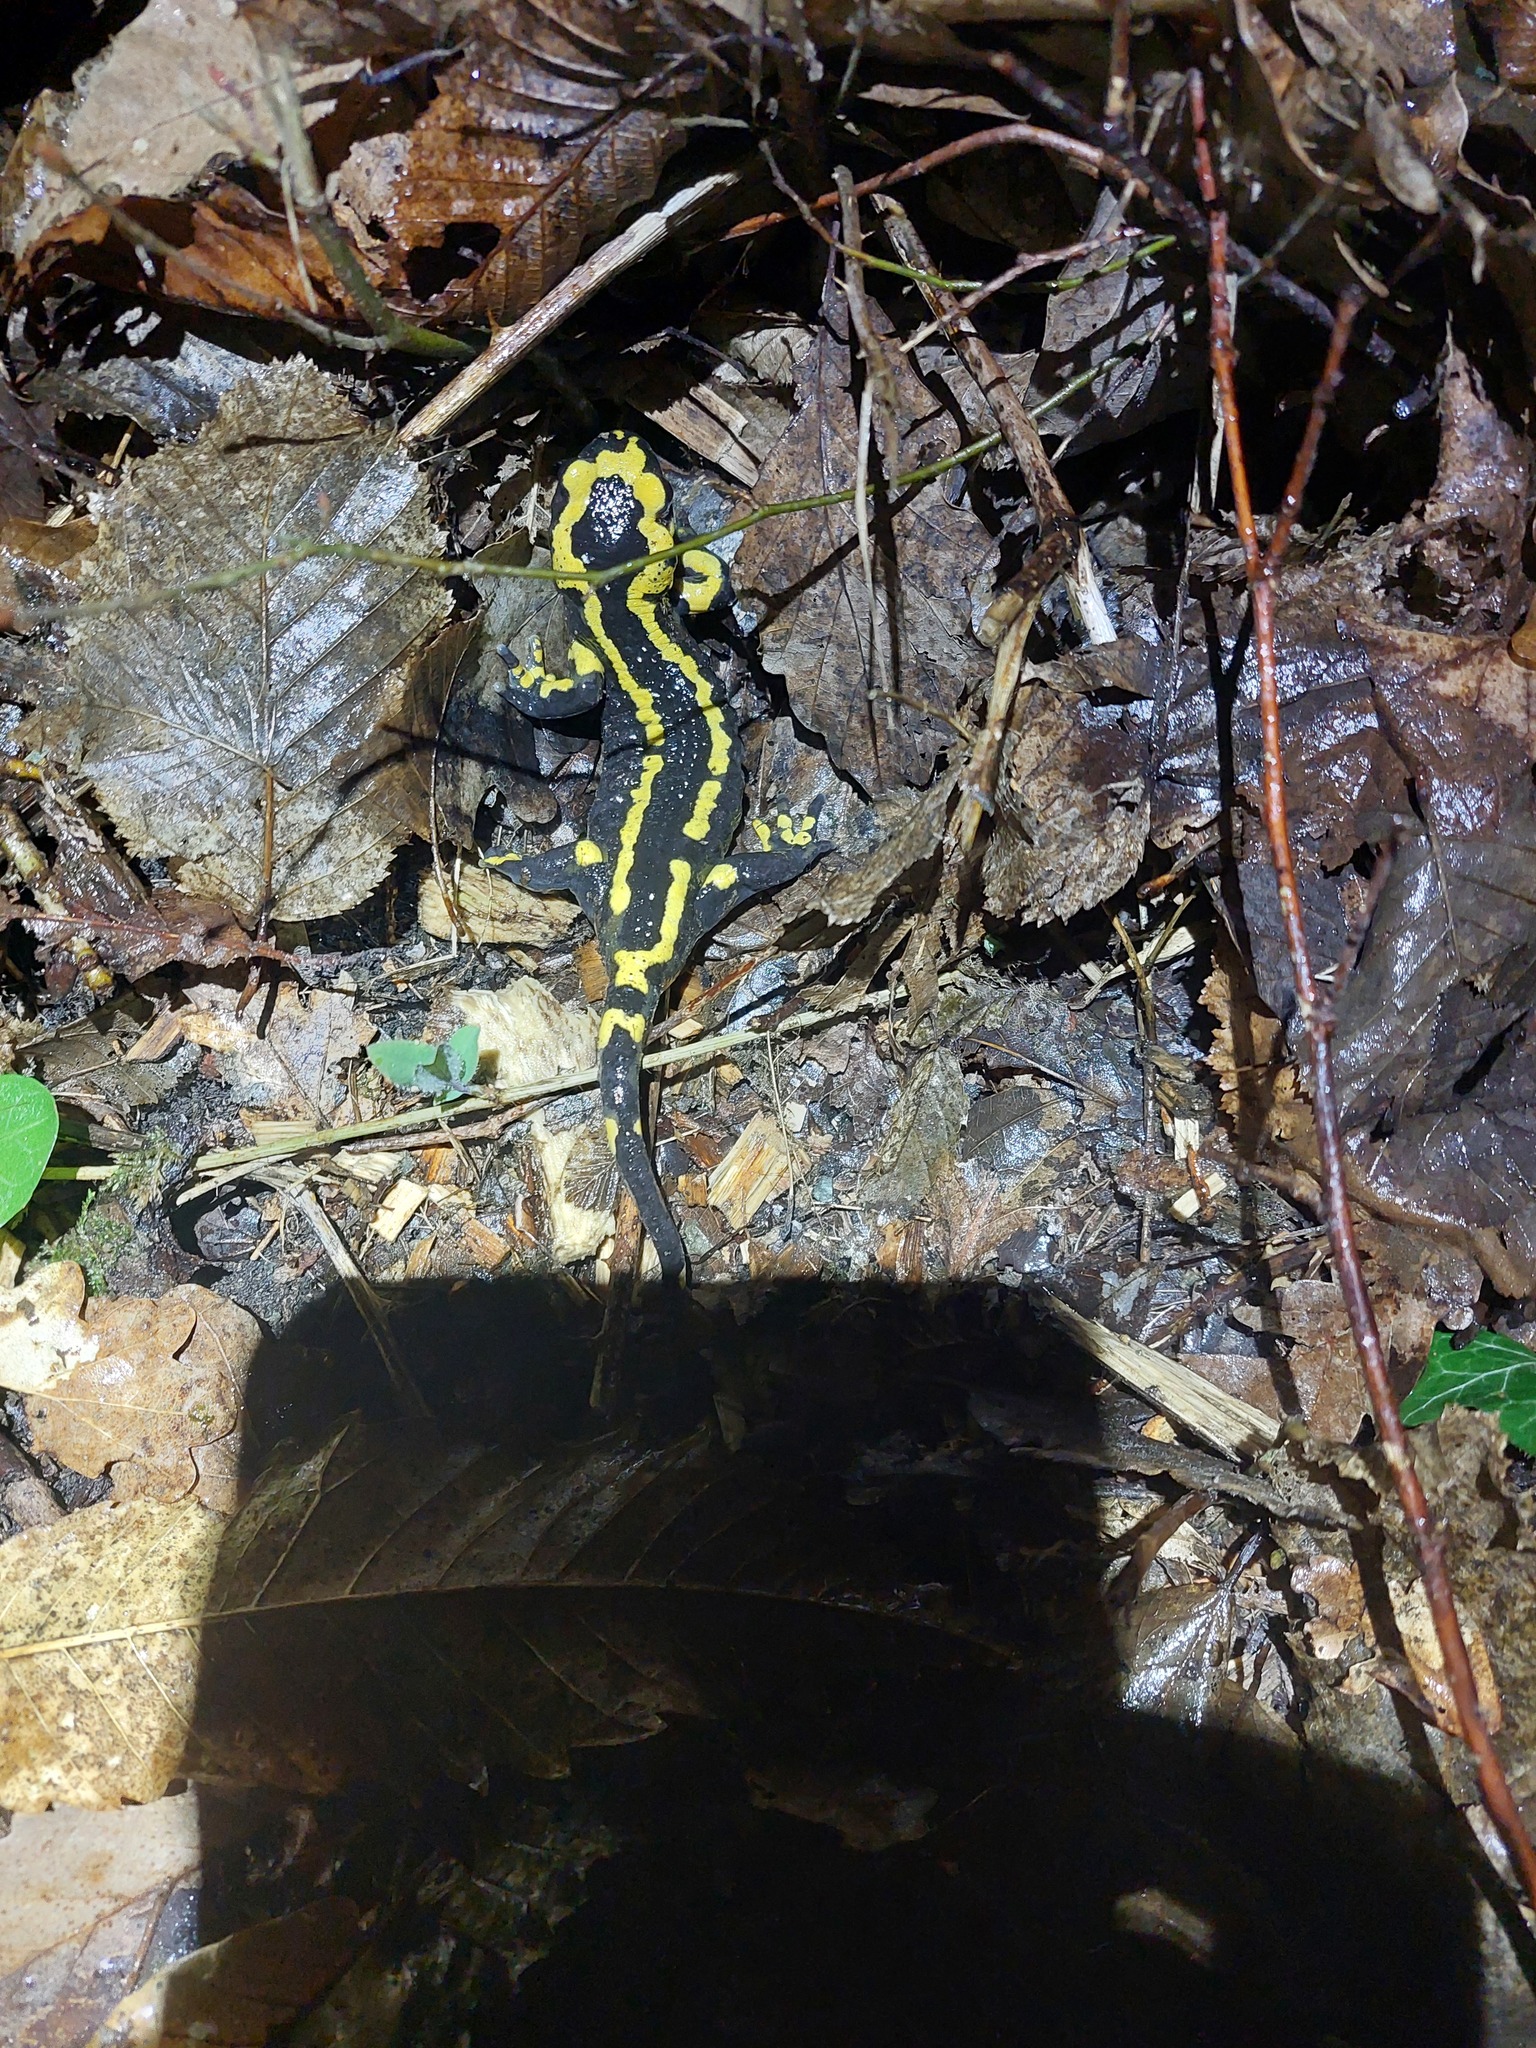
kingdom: Animalia
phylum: Chordata
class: Amphibia
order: Caudata
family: Salamandridae
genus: Salamandra
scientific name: Salamandra salamandra
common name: Fire salamander
